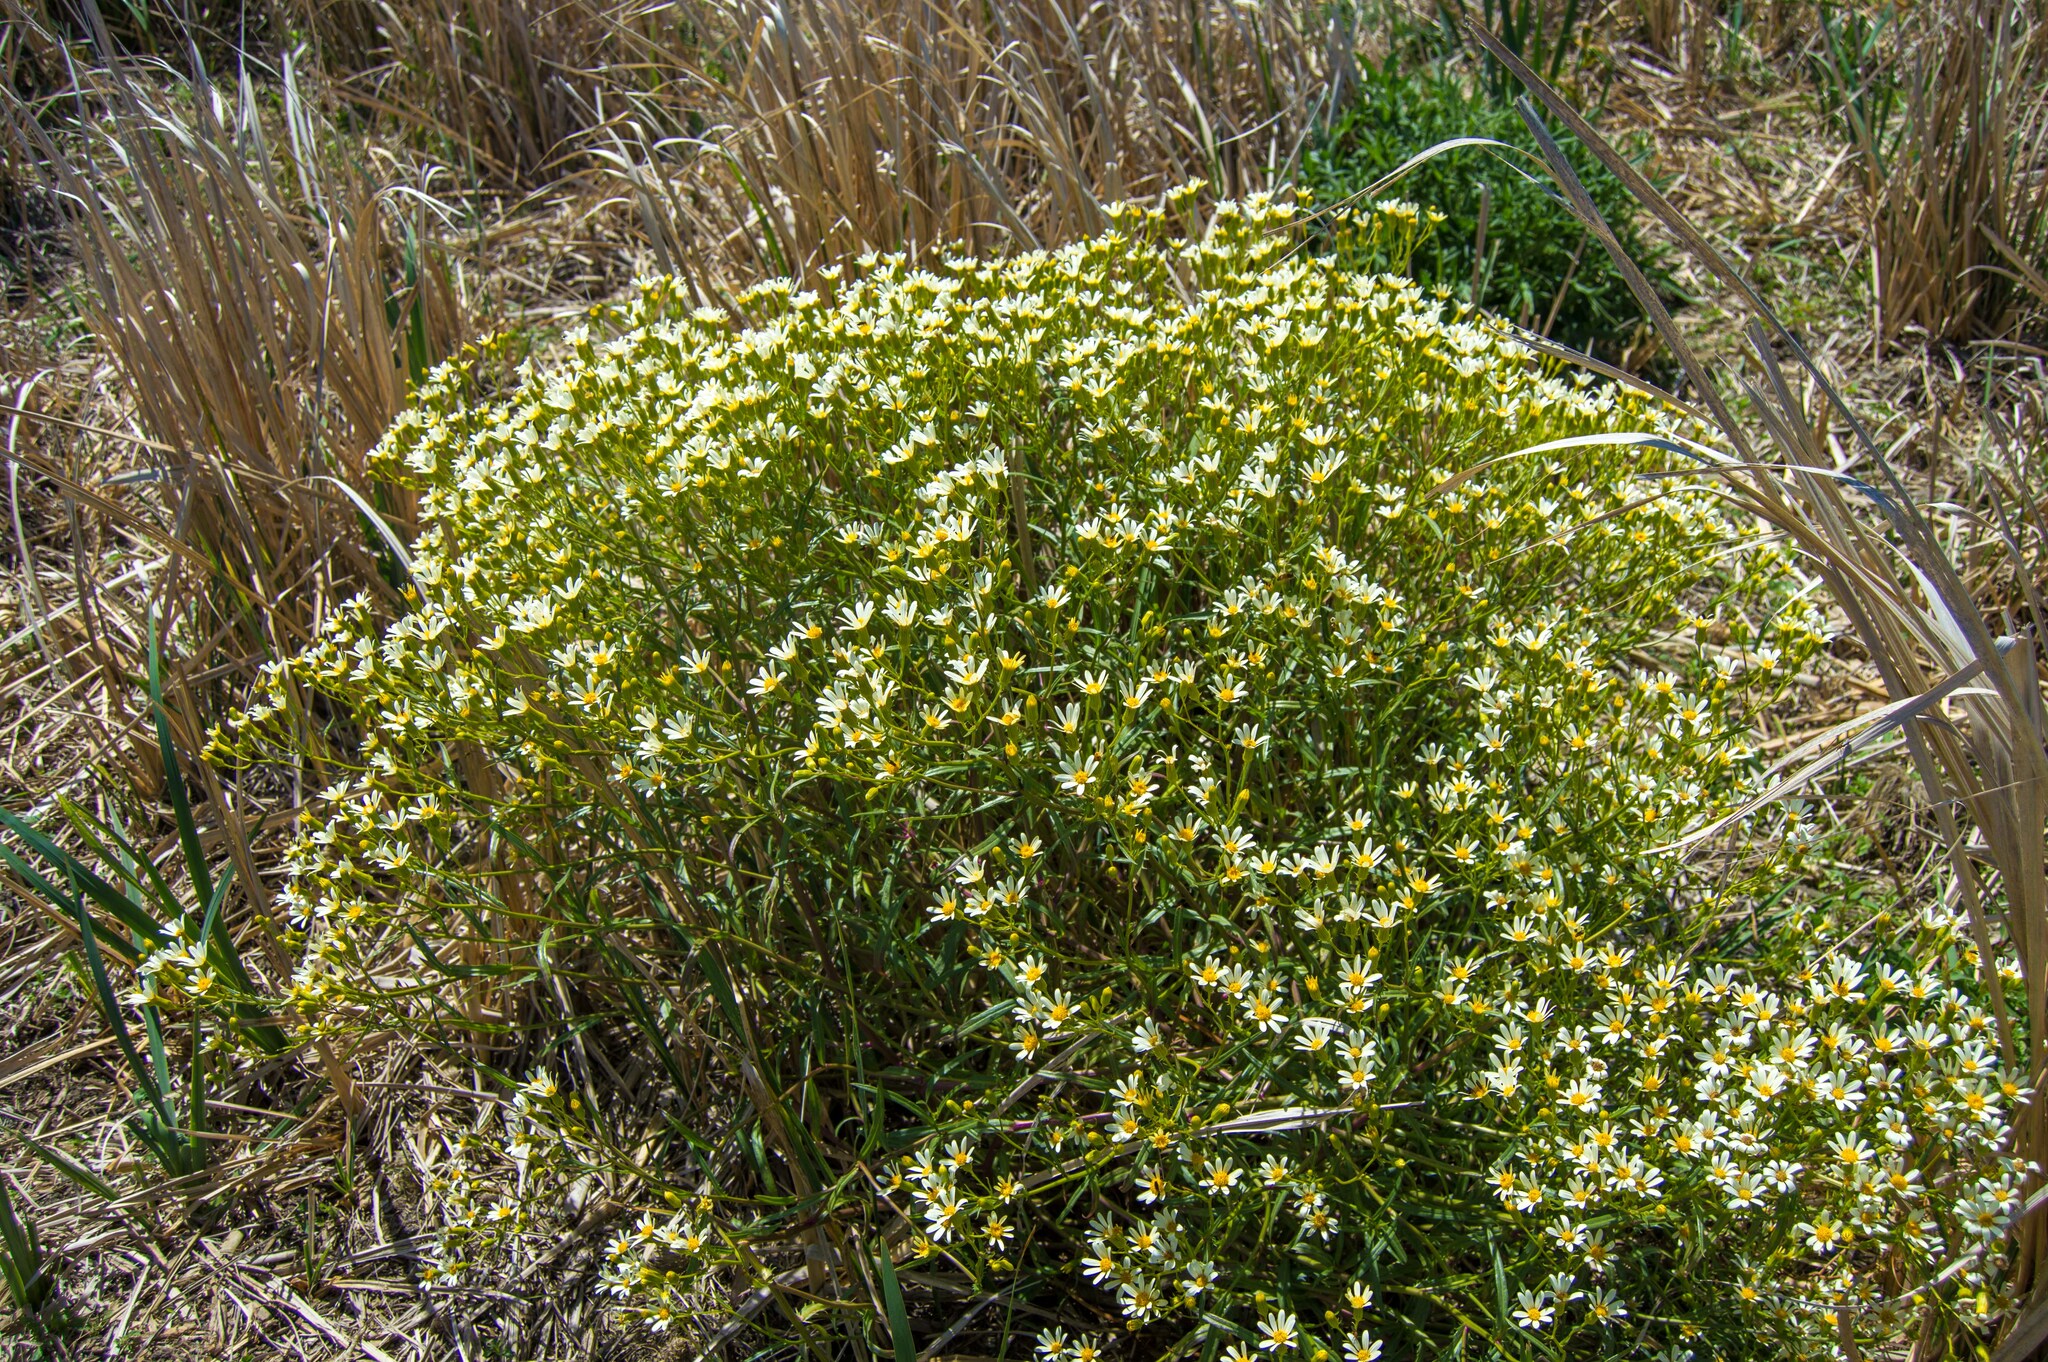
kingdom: Plantae
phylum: Tracheophyta
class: Magnoliopsida
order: Asterales
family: Asteraceae
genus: Senecio
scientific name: Senecio tweediei
